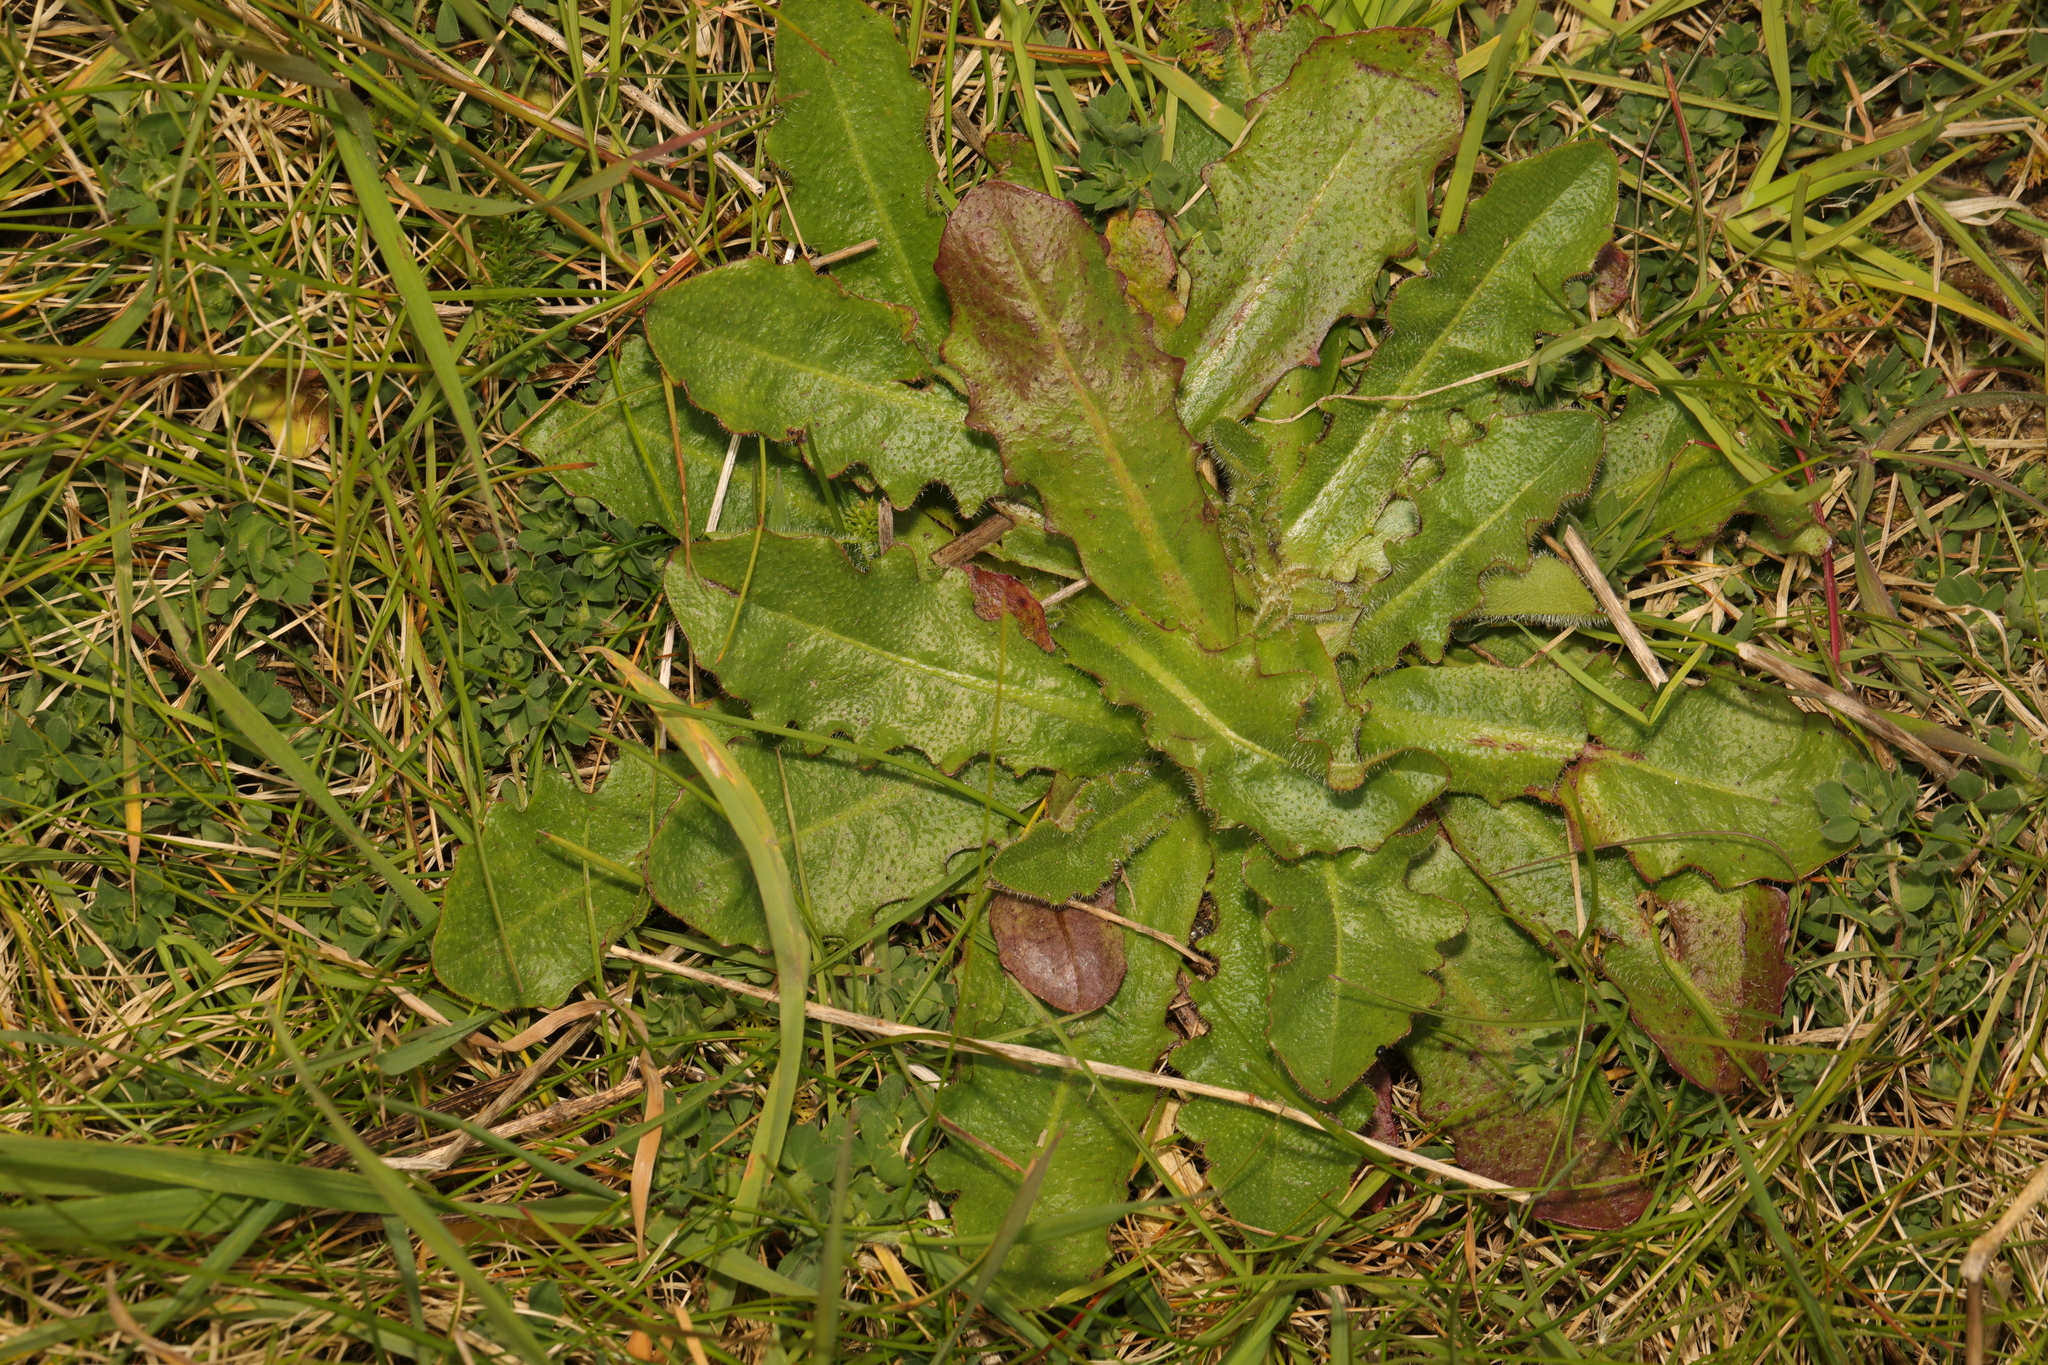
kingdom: Plantae
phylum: Tracheophyta
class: Magnoliopsida
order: Asterales
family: Asteraceae
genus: Hypochaeris
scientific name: Hypochaeris radicata
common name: Flatweed
